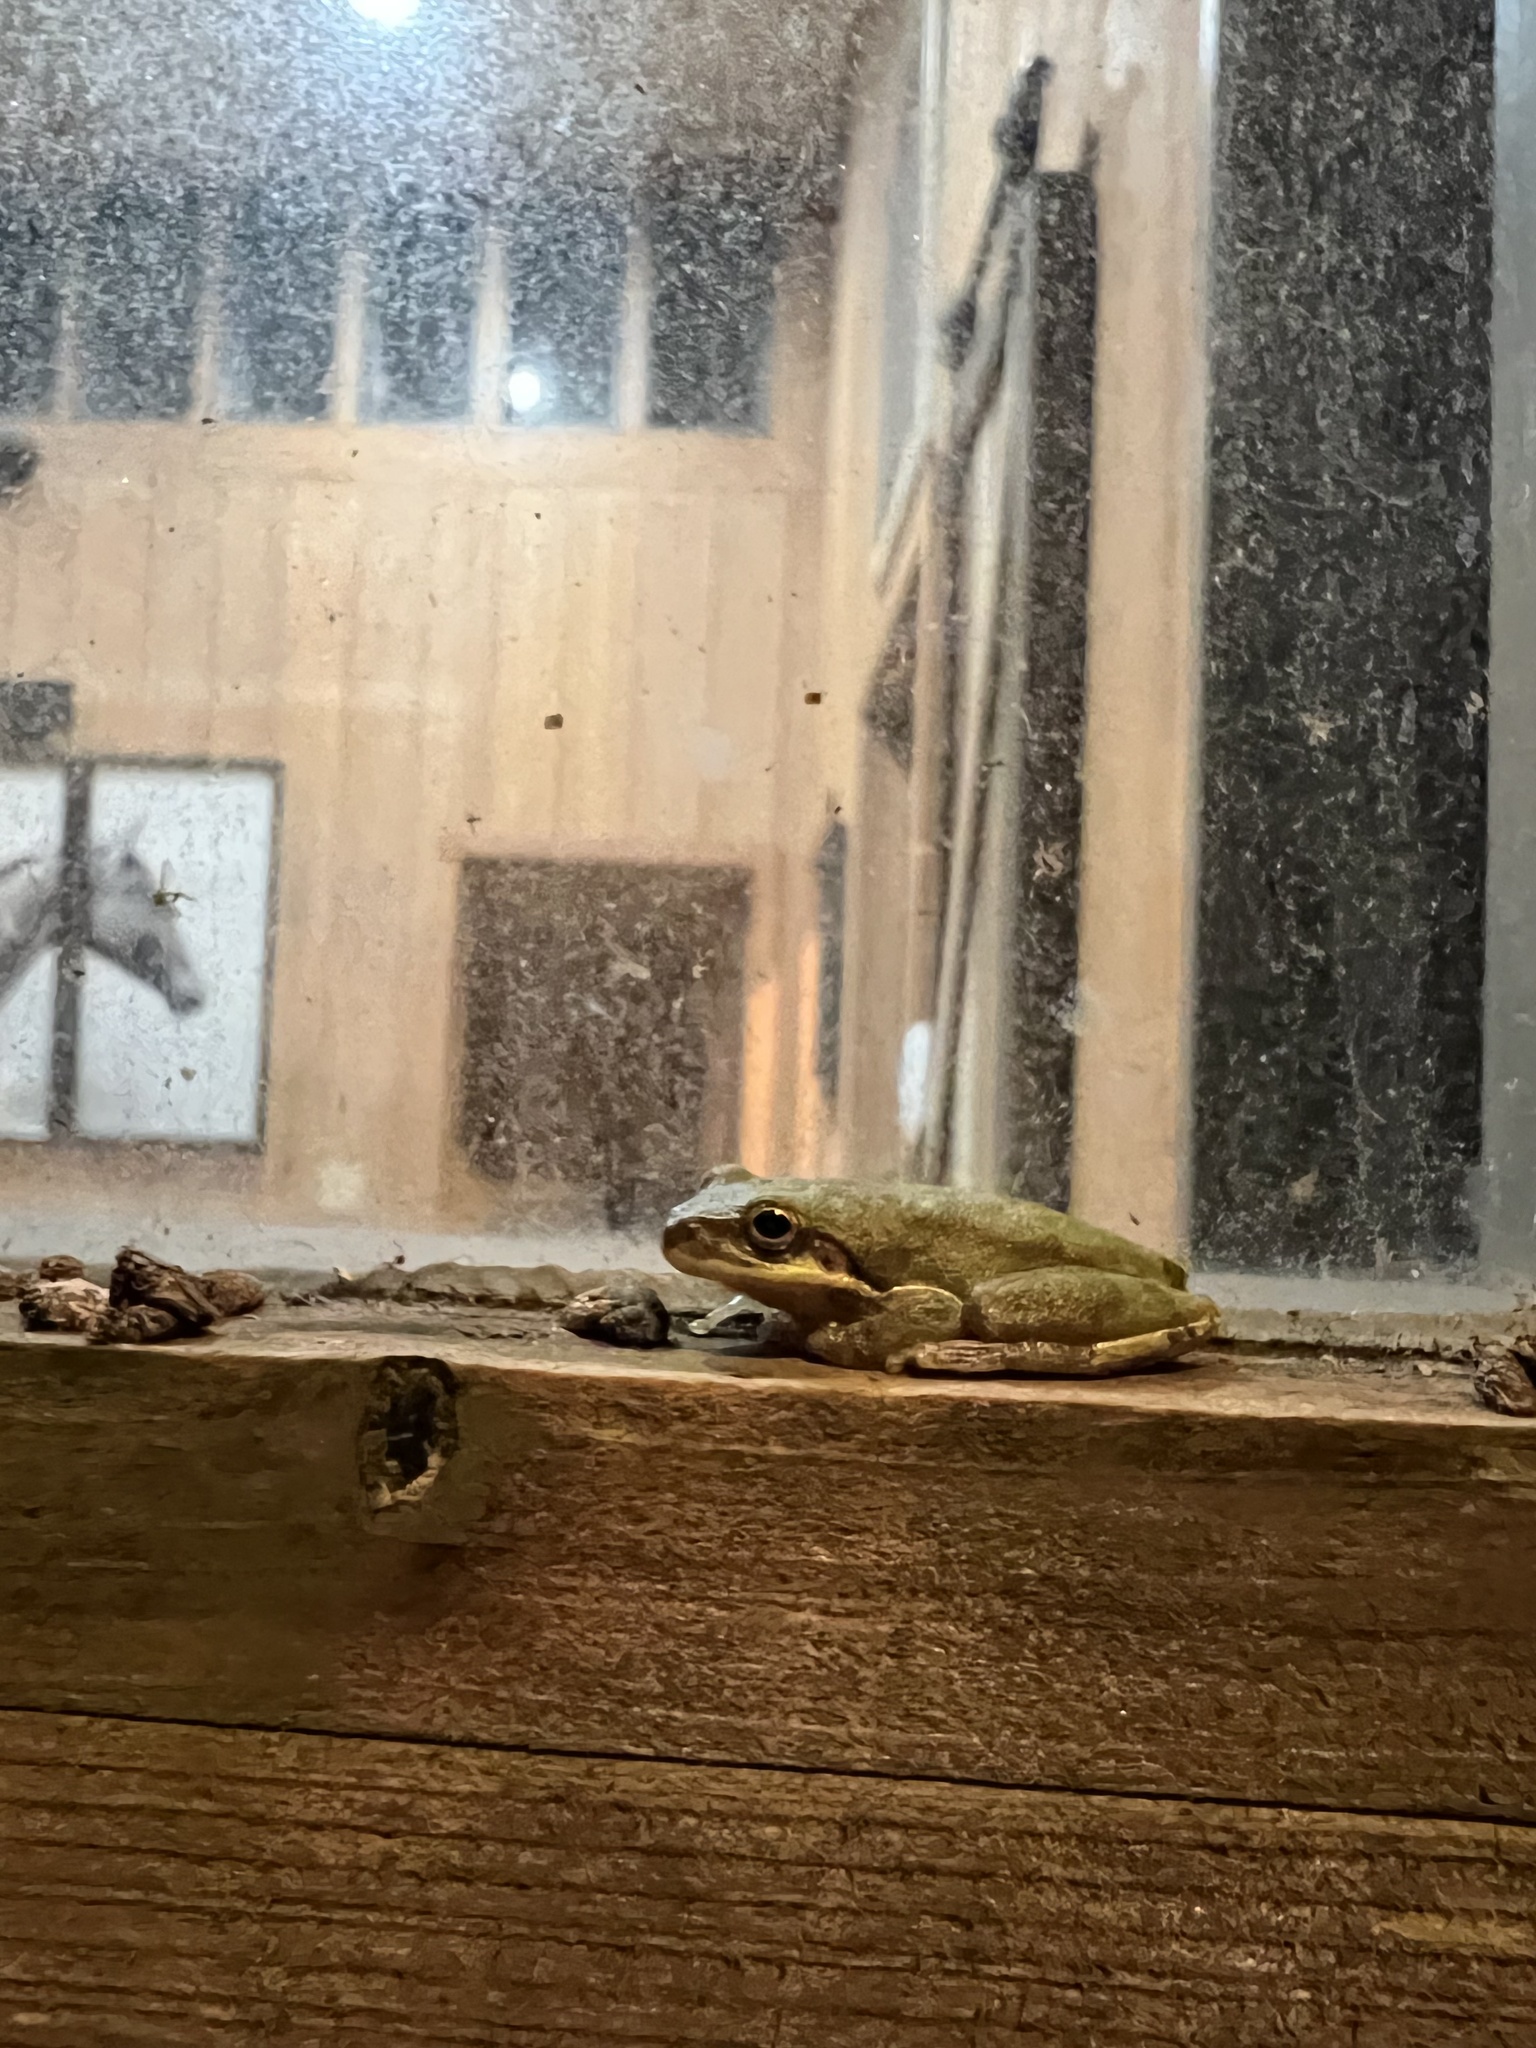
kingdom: Animalia
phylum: Chordata
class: Amphibia
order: Anura
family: Hylidae
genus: Dryophytes
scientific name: Dryophytes squirellus
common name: Squirrel treefrog
